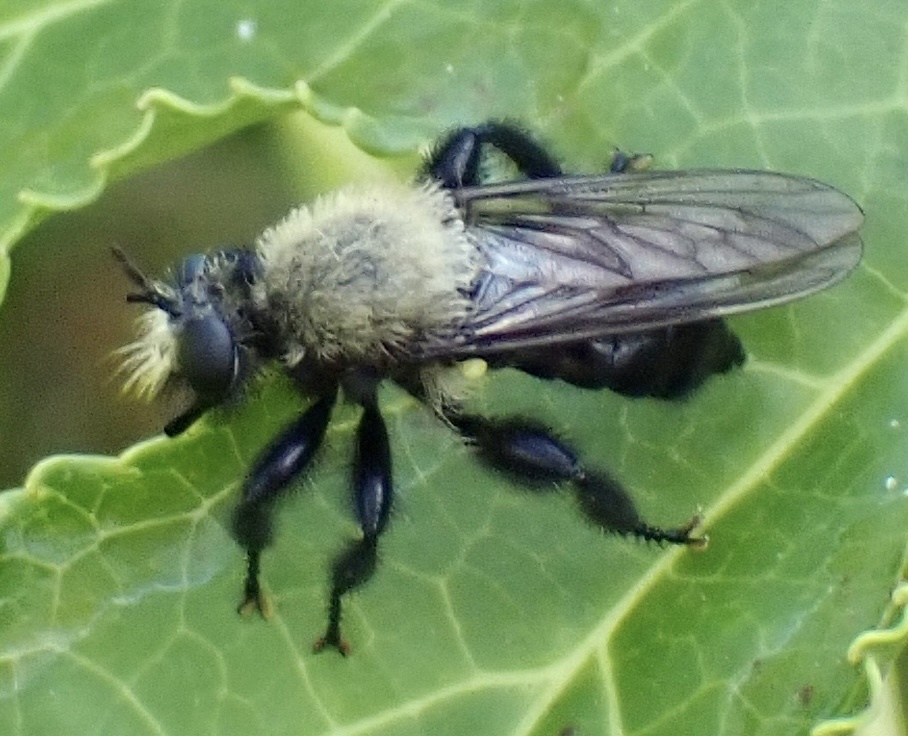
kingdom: Animalia
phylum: Arthropoda
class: Insecta
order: Diptera
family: Asilidae
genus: Laphria
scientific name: Laphria flavicollis
